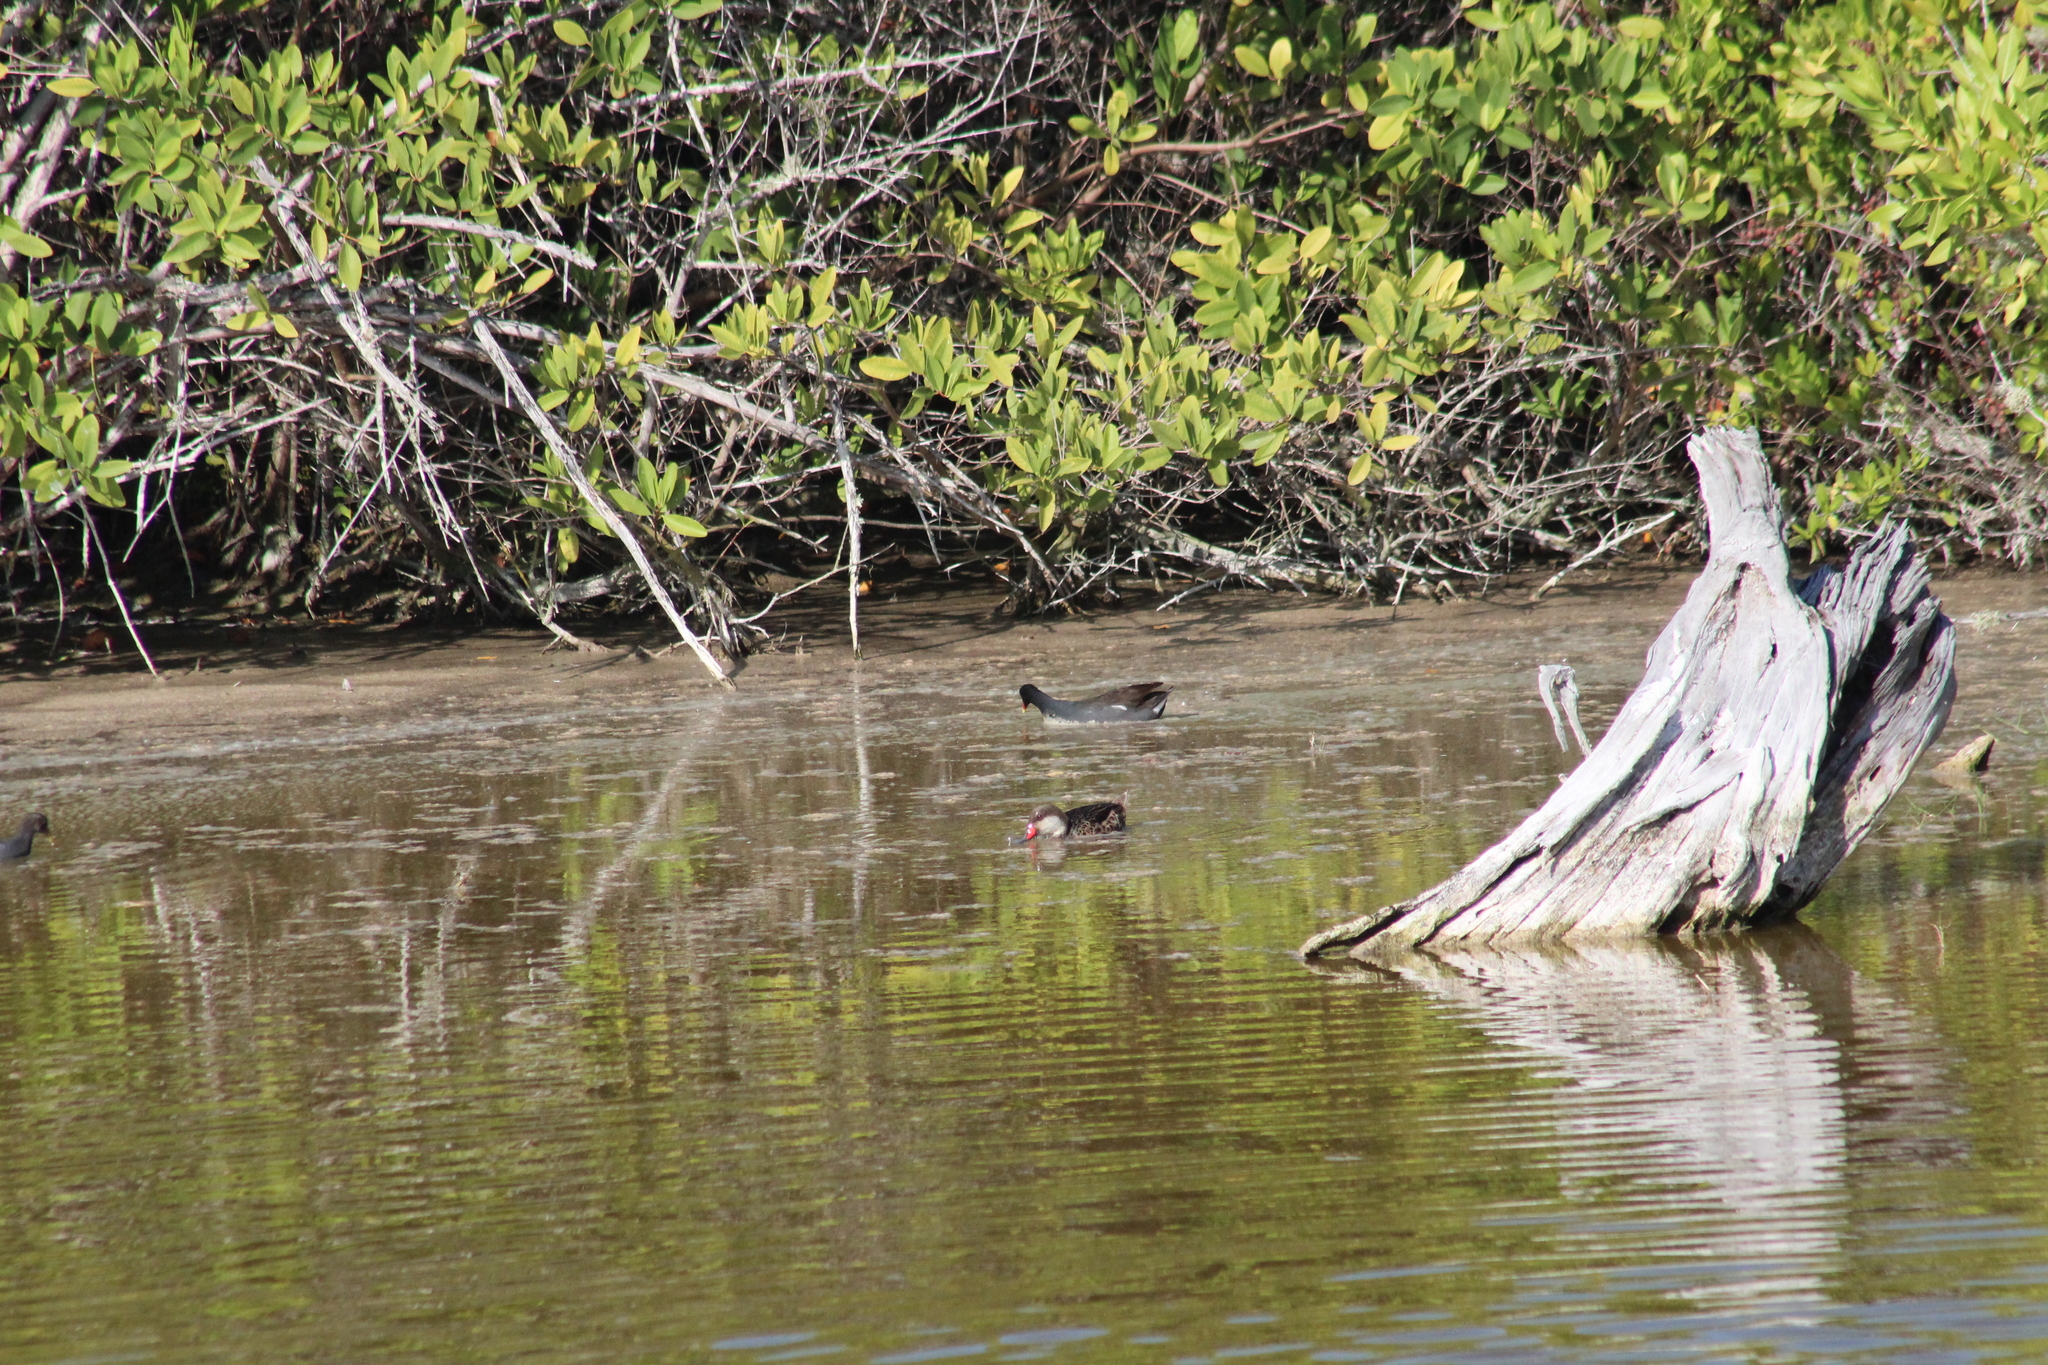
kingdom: Animalia
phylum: Chordata
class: Aves
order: Anseriformes
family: Anatidae
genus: Anas
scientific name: Anas bahamensis
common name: White-cheeked pintail
